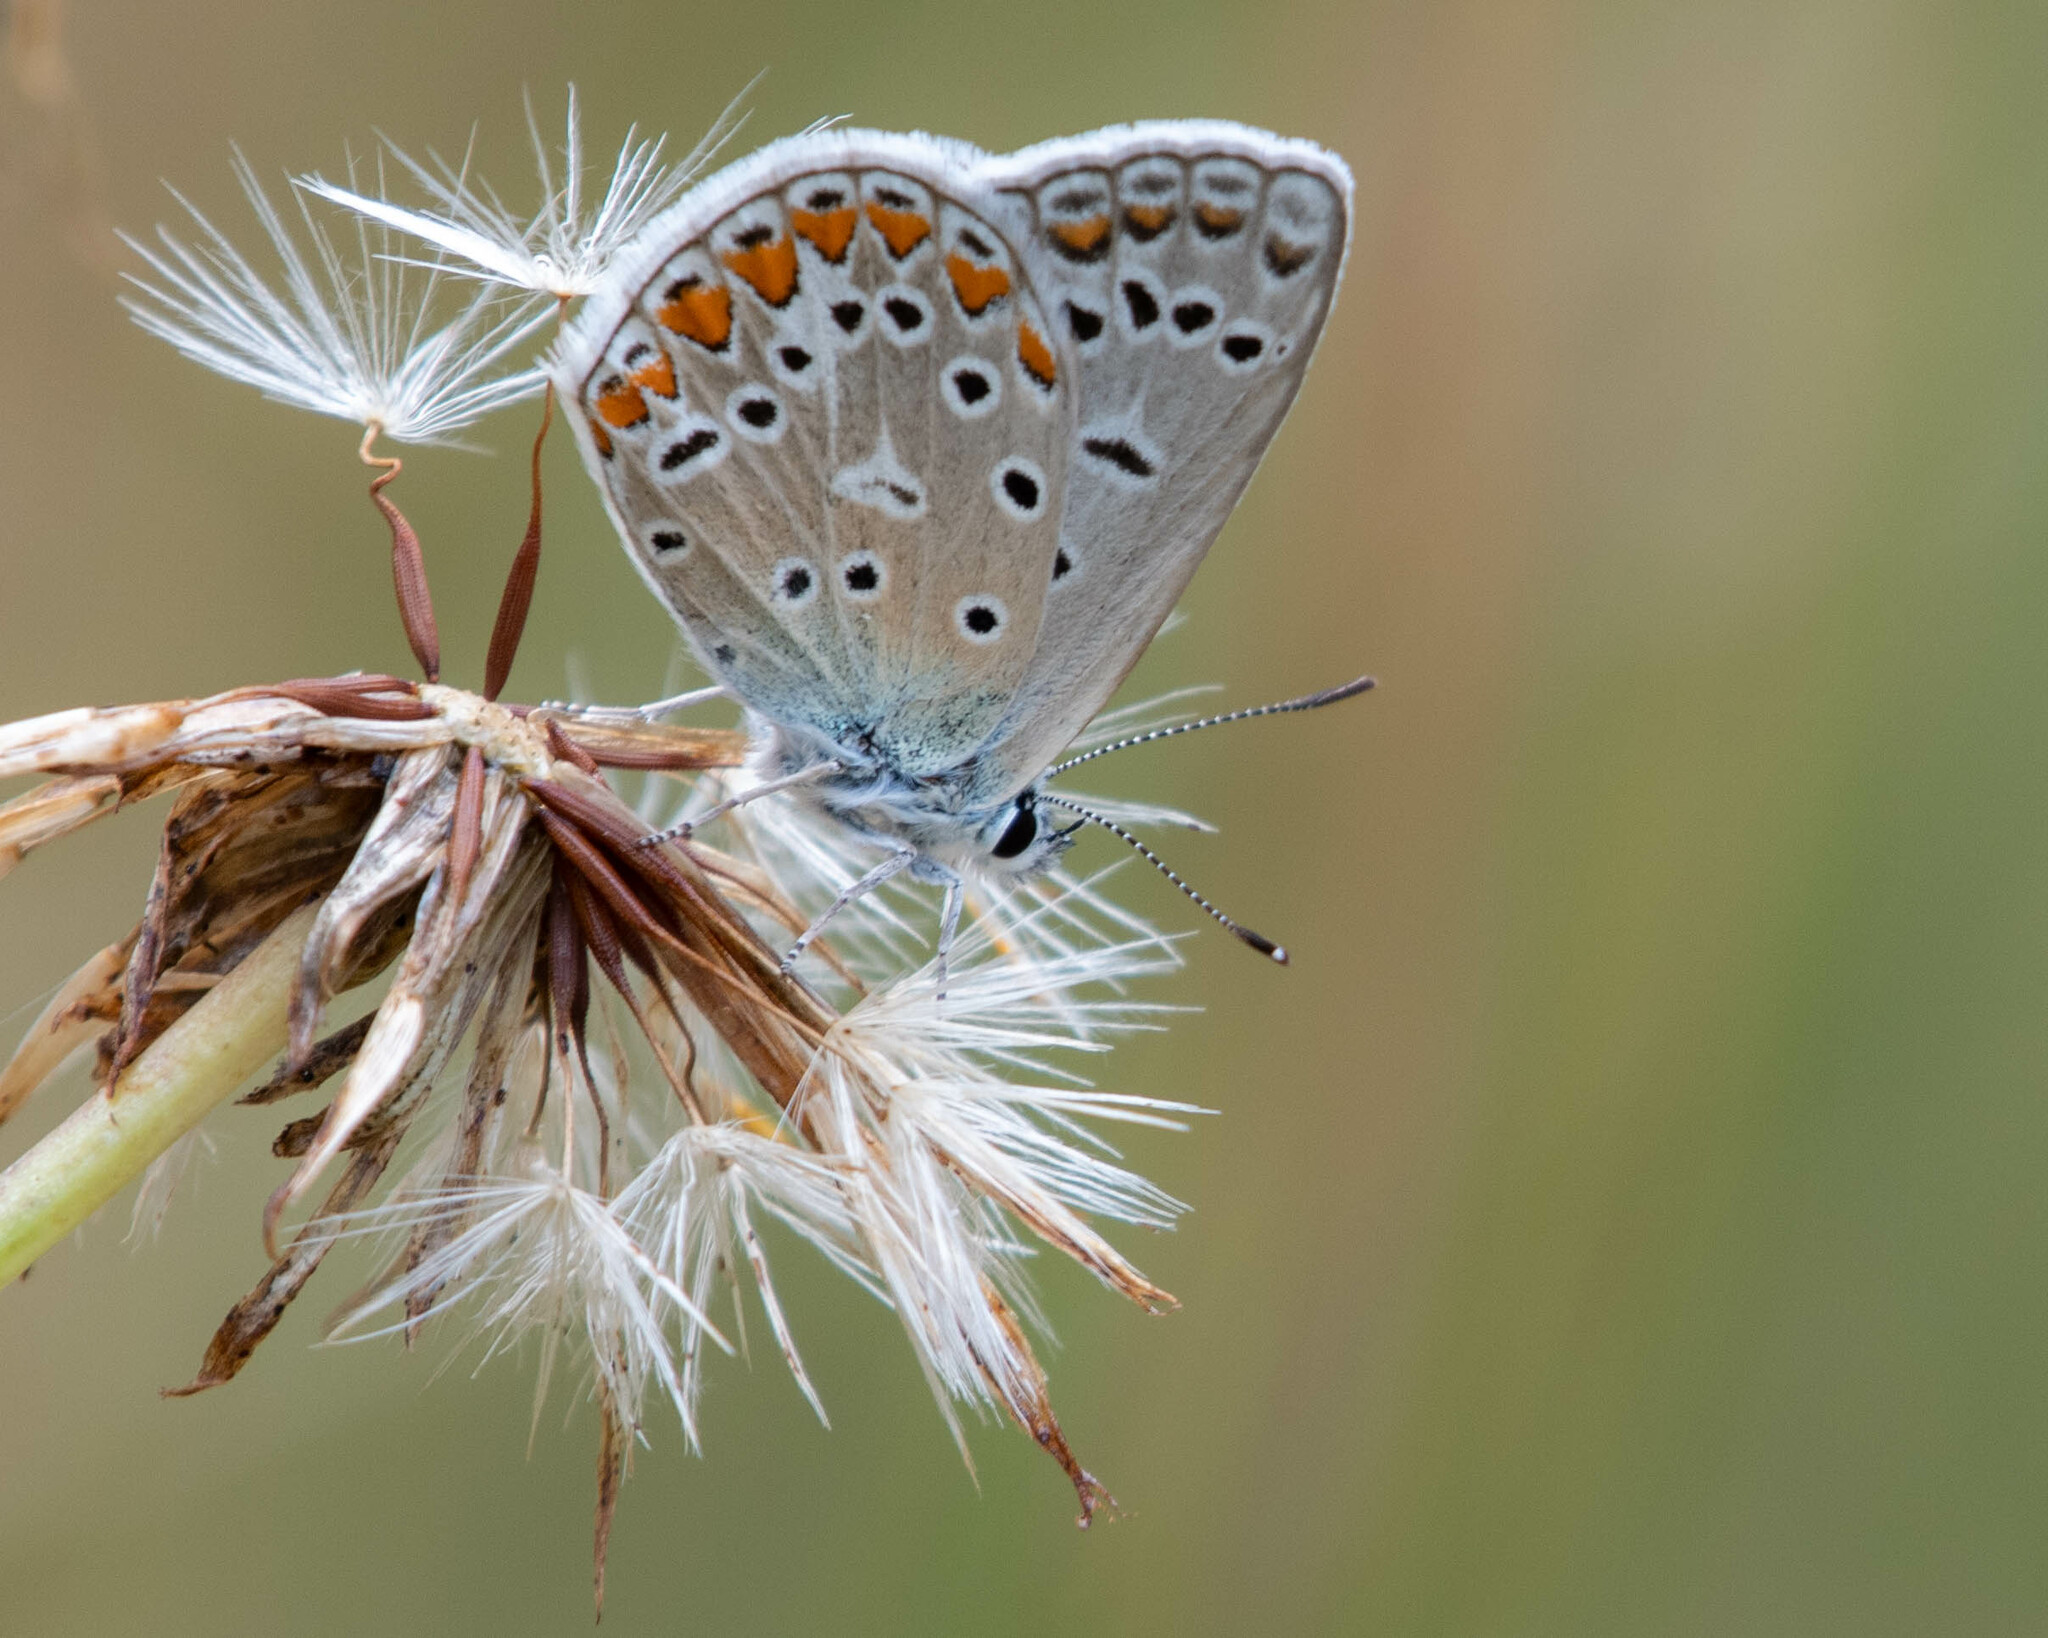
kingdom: Animalia
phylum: Arthropoda
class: Insecta
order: Lepidoptera
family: Lycaenidae
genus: Polyommatus
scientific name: Polyommatus icarus
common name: Common blue
